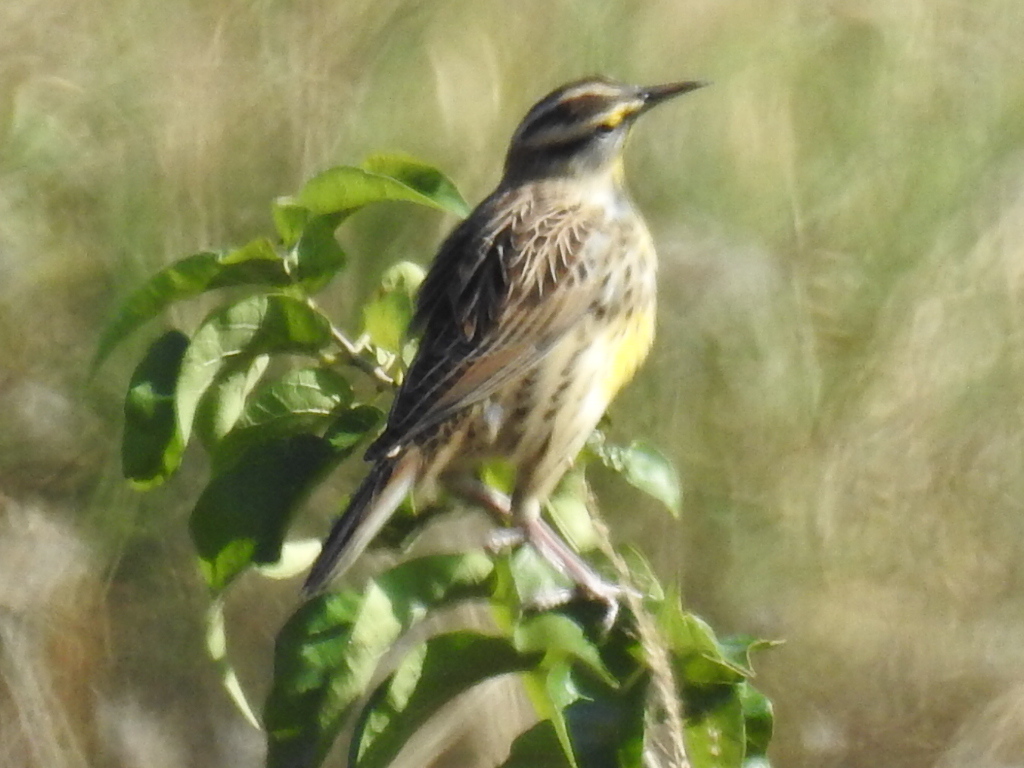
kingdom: Animalia
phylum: Chordata
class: Aves
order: Passeriformes
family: Icteridae
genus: Sturnella
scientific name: Sturnella magna
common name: Eastern meadowlark
